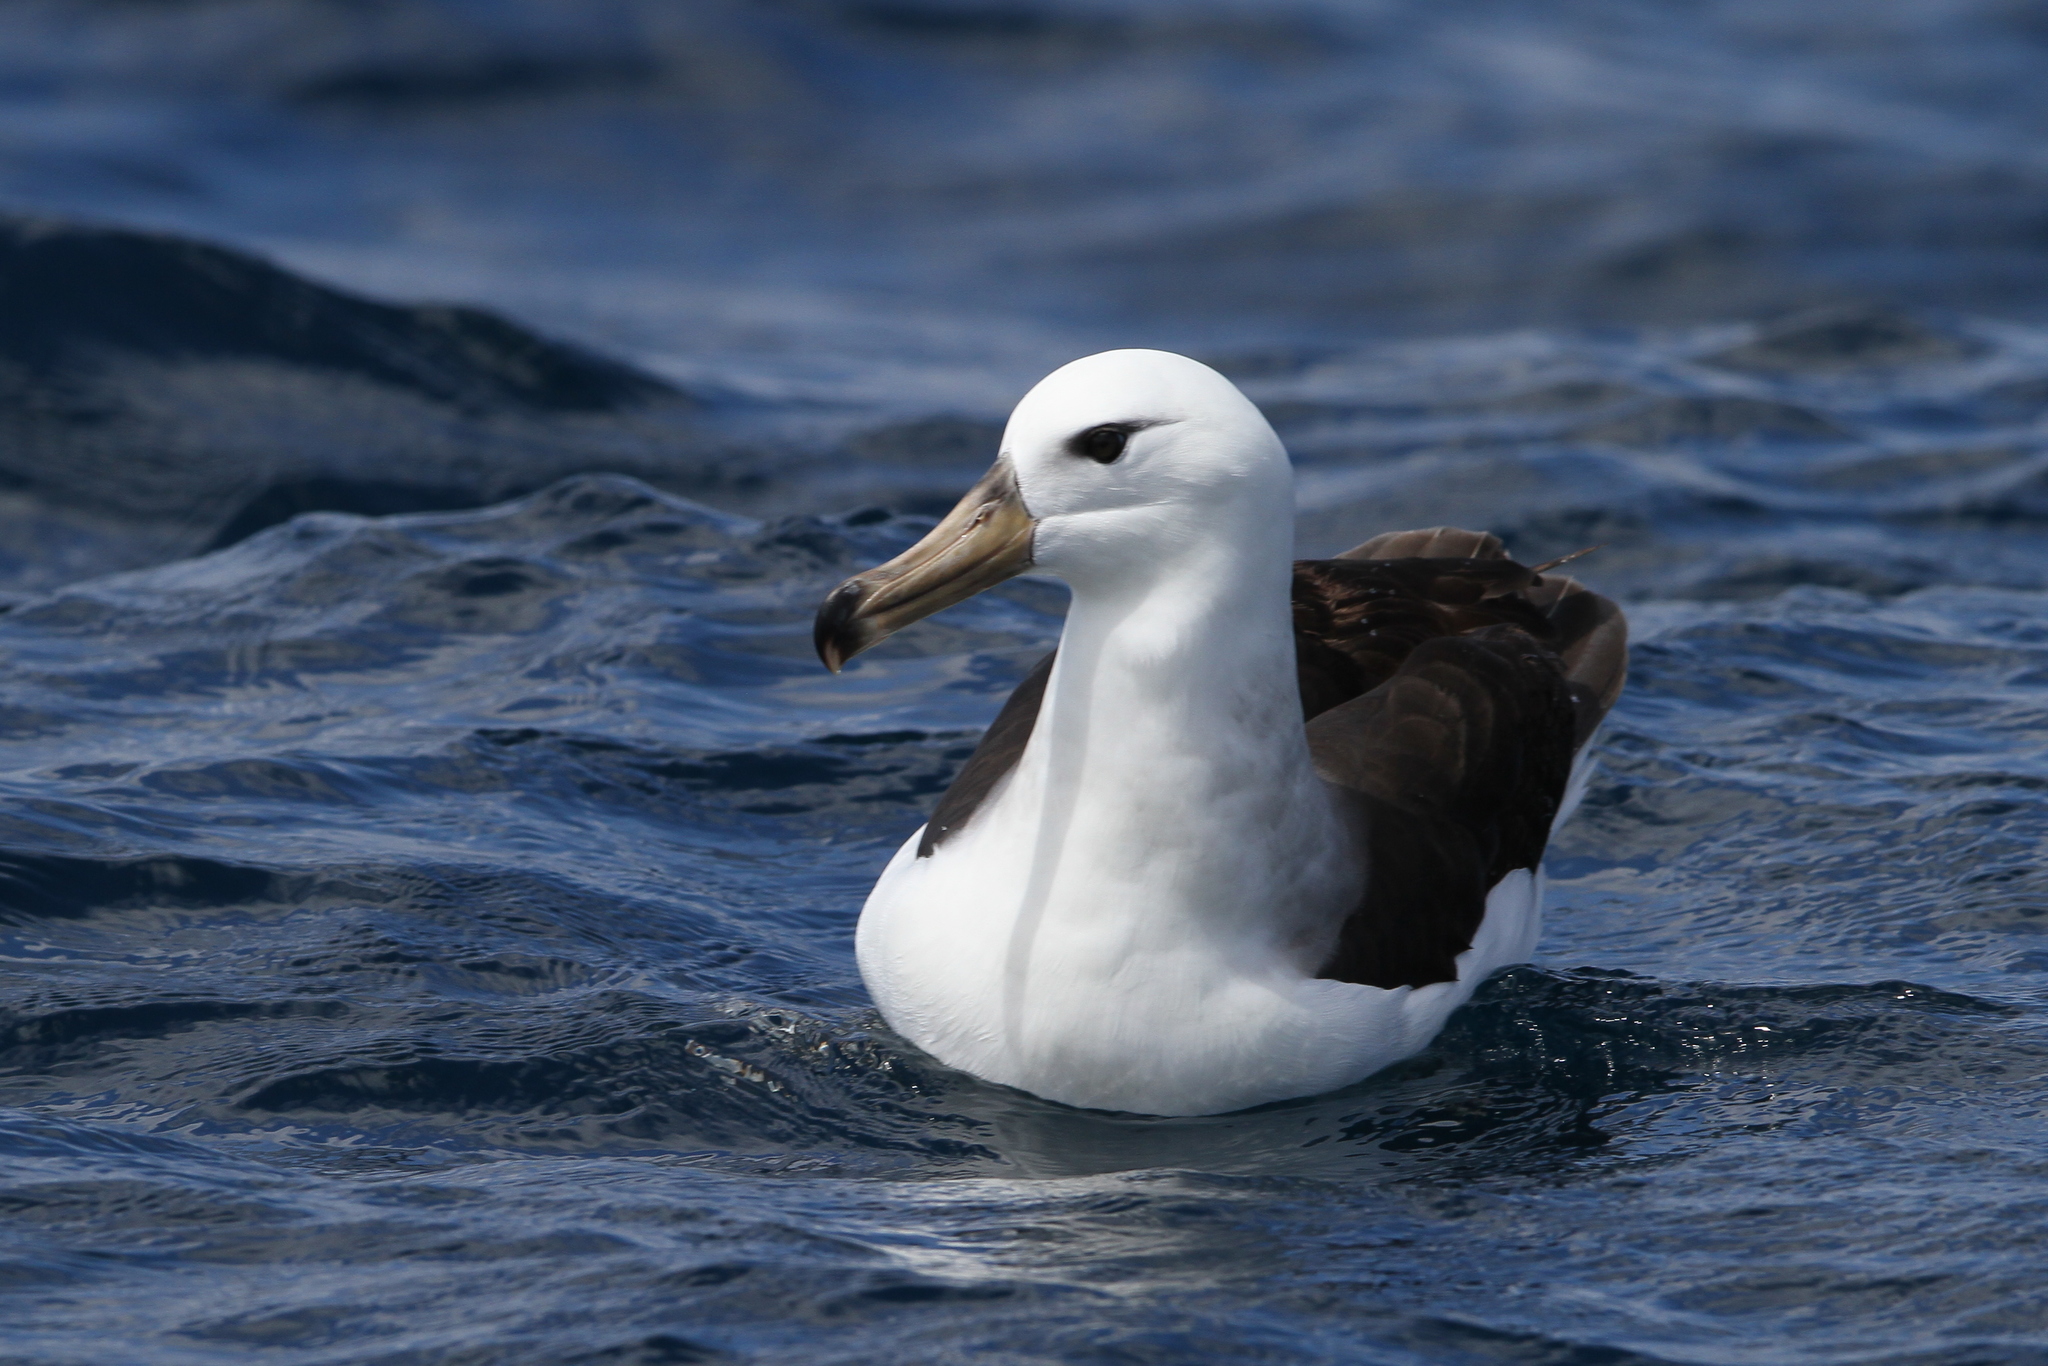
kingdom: Animalia
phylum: Chordata
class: Aves
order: Procellariiformes
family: Diomedeidae
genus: Thalassarche
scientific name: Thalassarche melanophris
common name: Black-browed albatross
